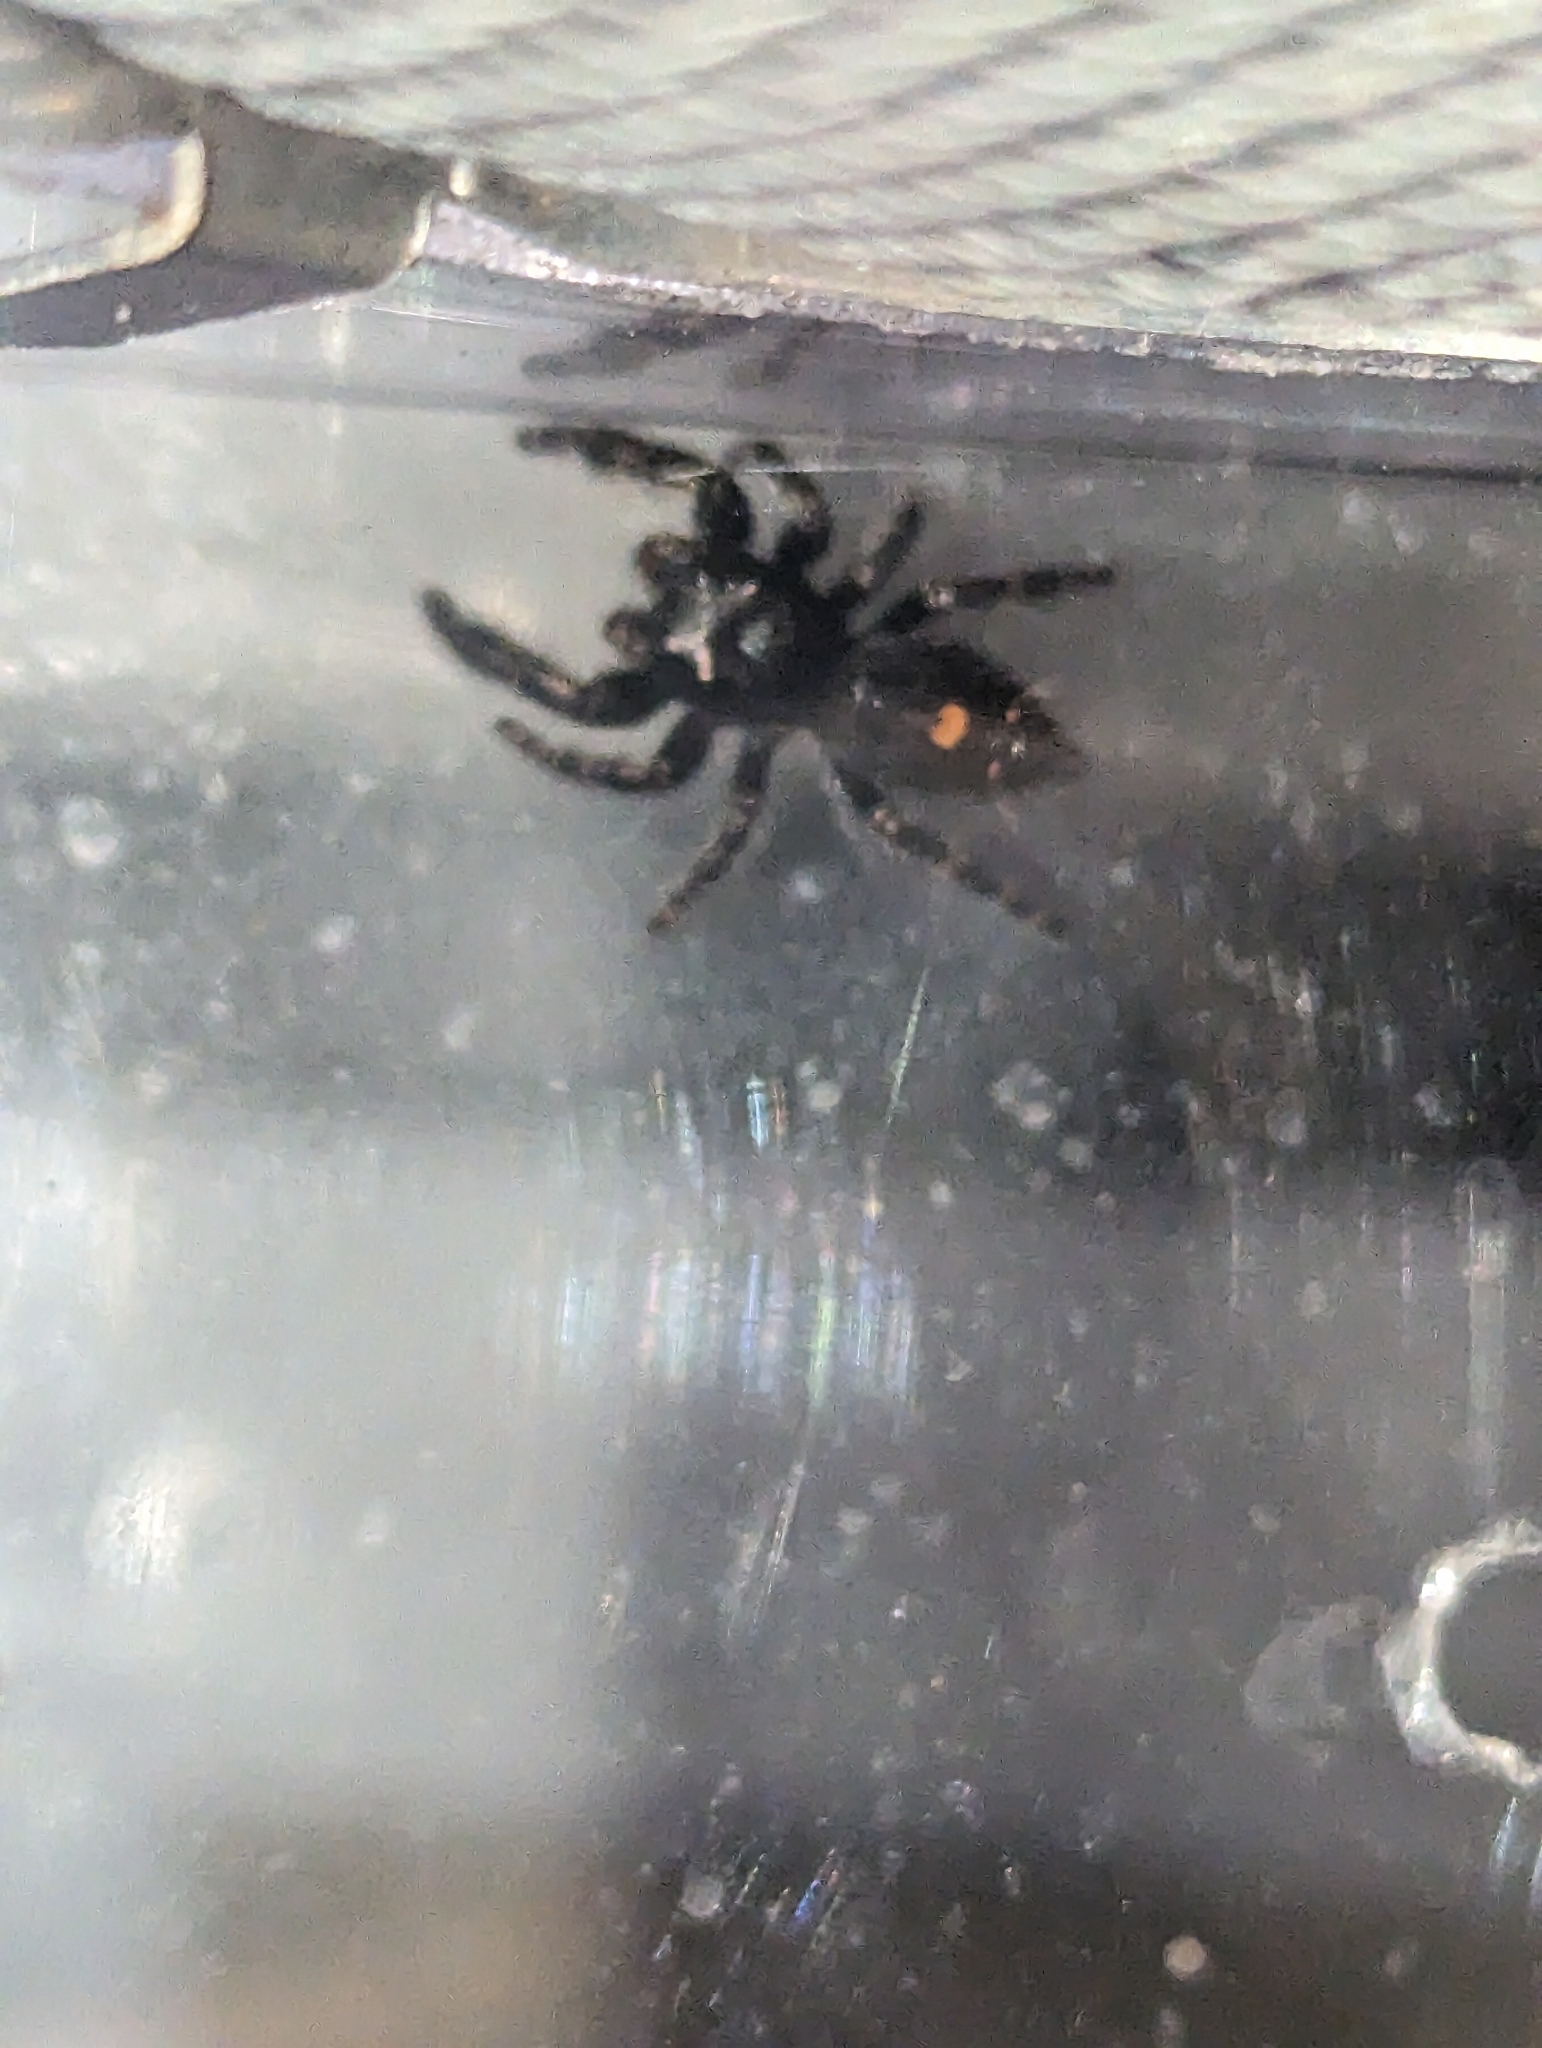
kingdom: Animalia
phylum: Arthropoda
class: Arachnida
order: Araneae
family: Salticidae
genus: Phidippus
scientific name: Phidippus audax
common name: Bold jumper
